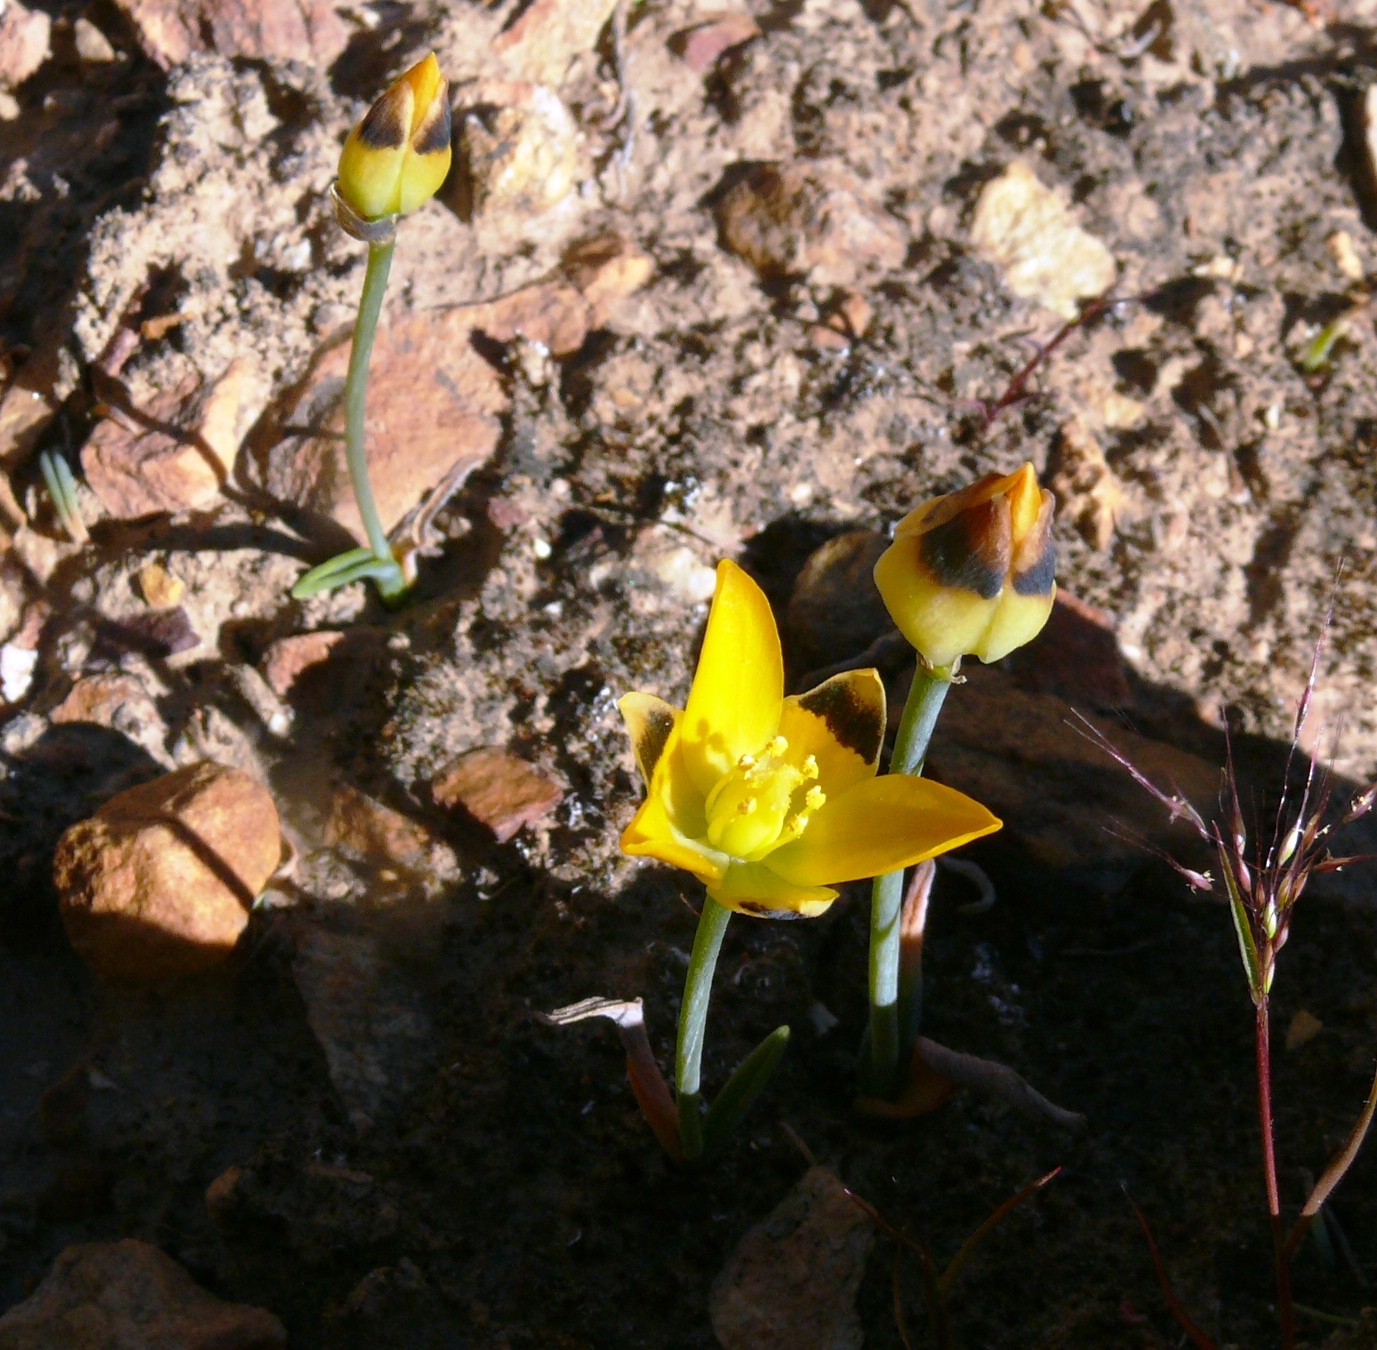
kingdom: Plantae
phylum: Tracheophyta
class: Liliopsida
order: Asparagales
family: Asparagaceae
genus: Ornithogalum
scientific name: Ornithogalum maculatum
